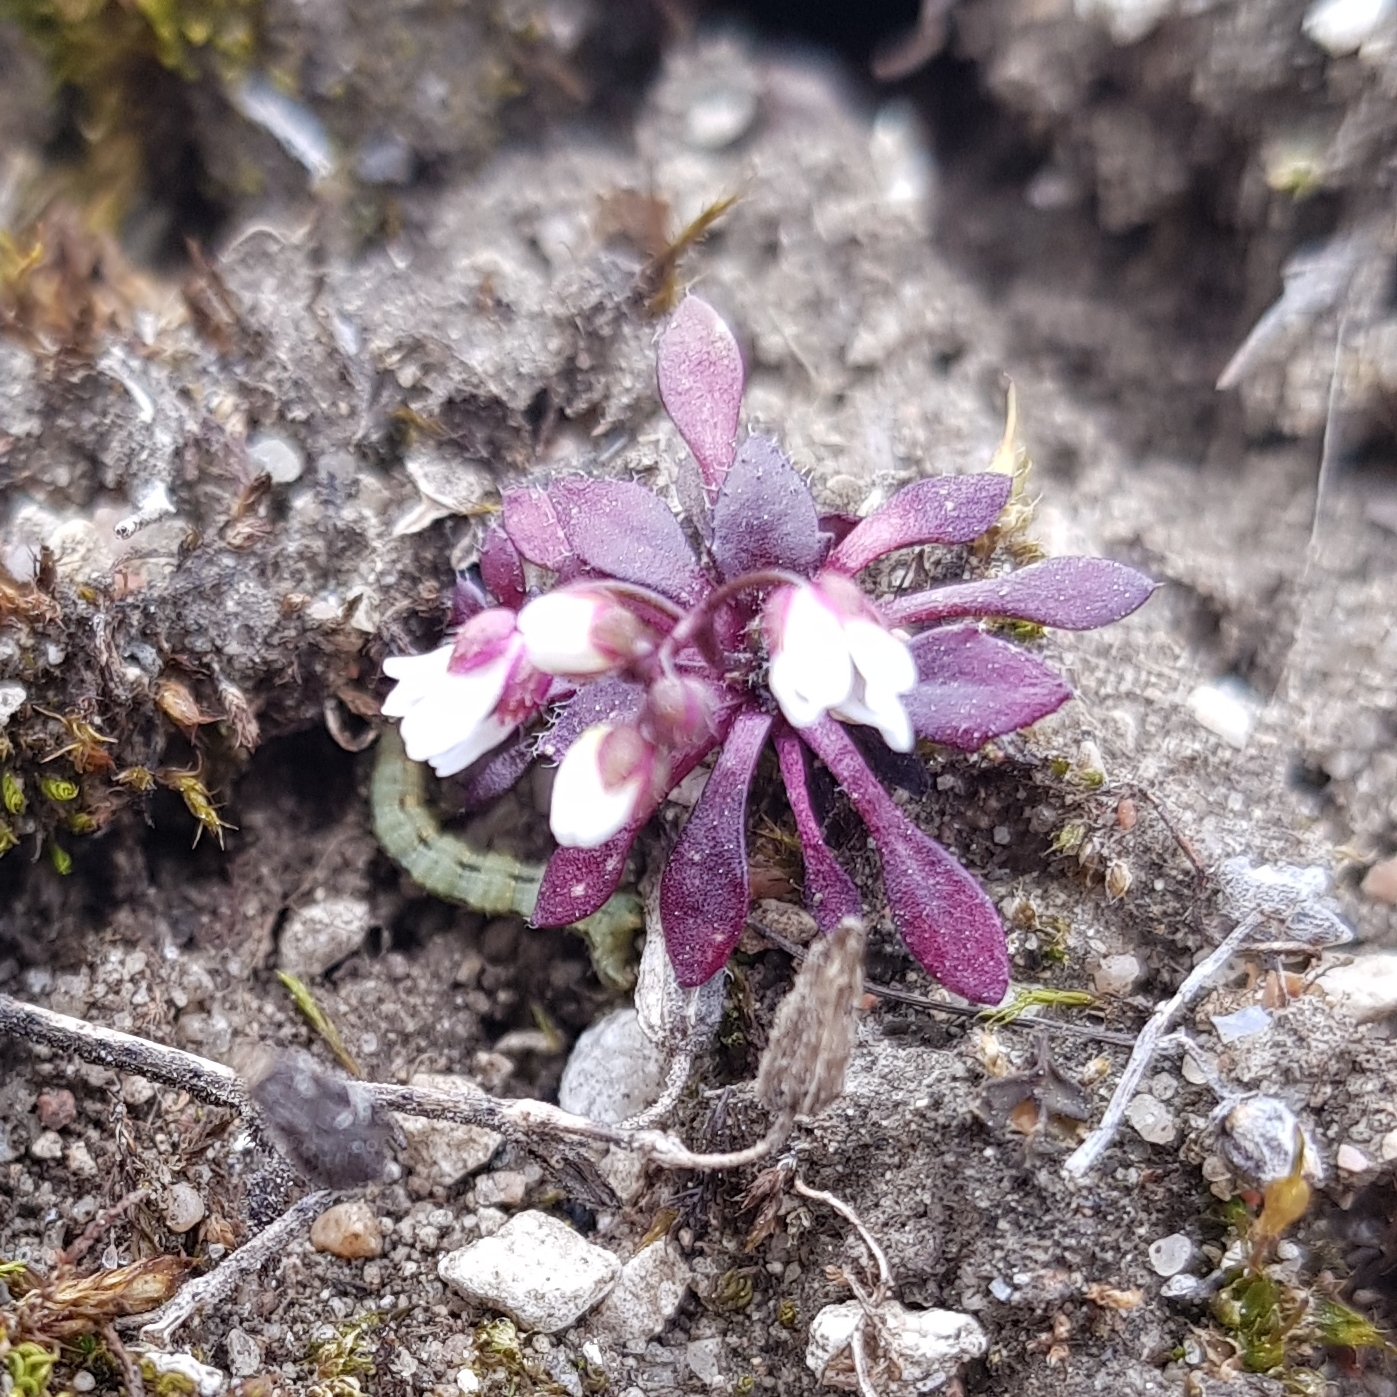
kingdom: Plantae
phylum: Tracheophyta
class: Magnoliopsida
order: Brassicales
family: Brassicaceae
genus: Draba
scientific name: Draba verna
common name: Spring draba
